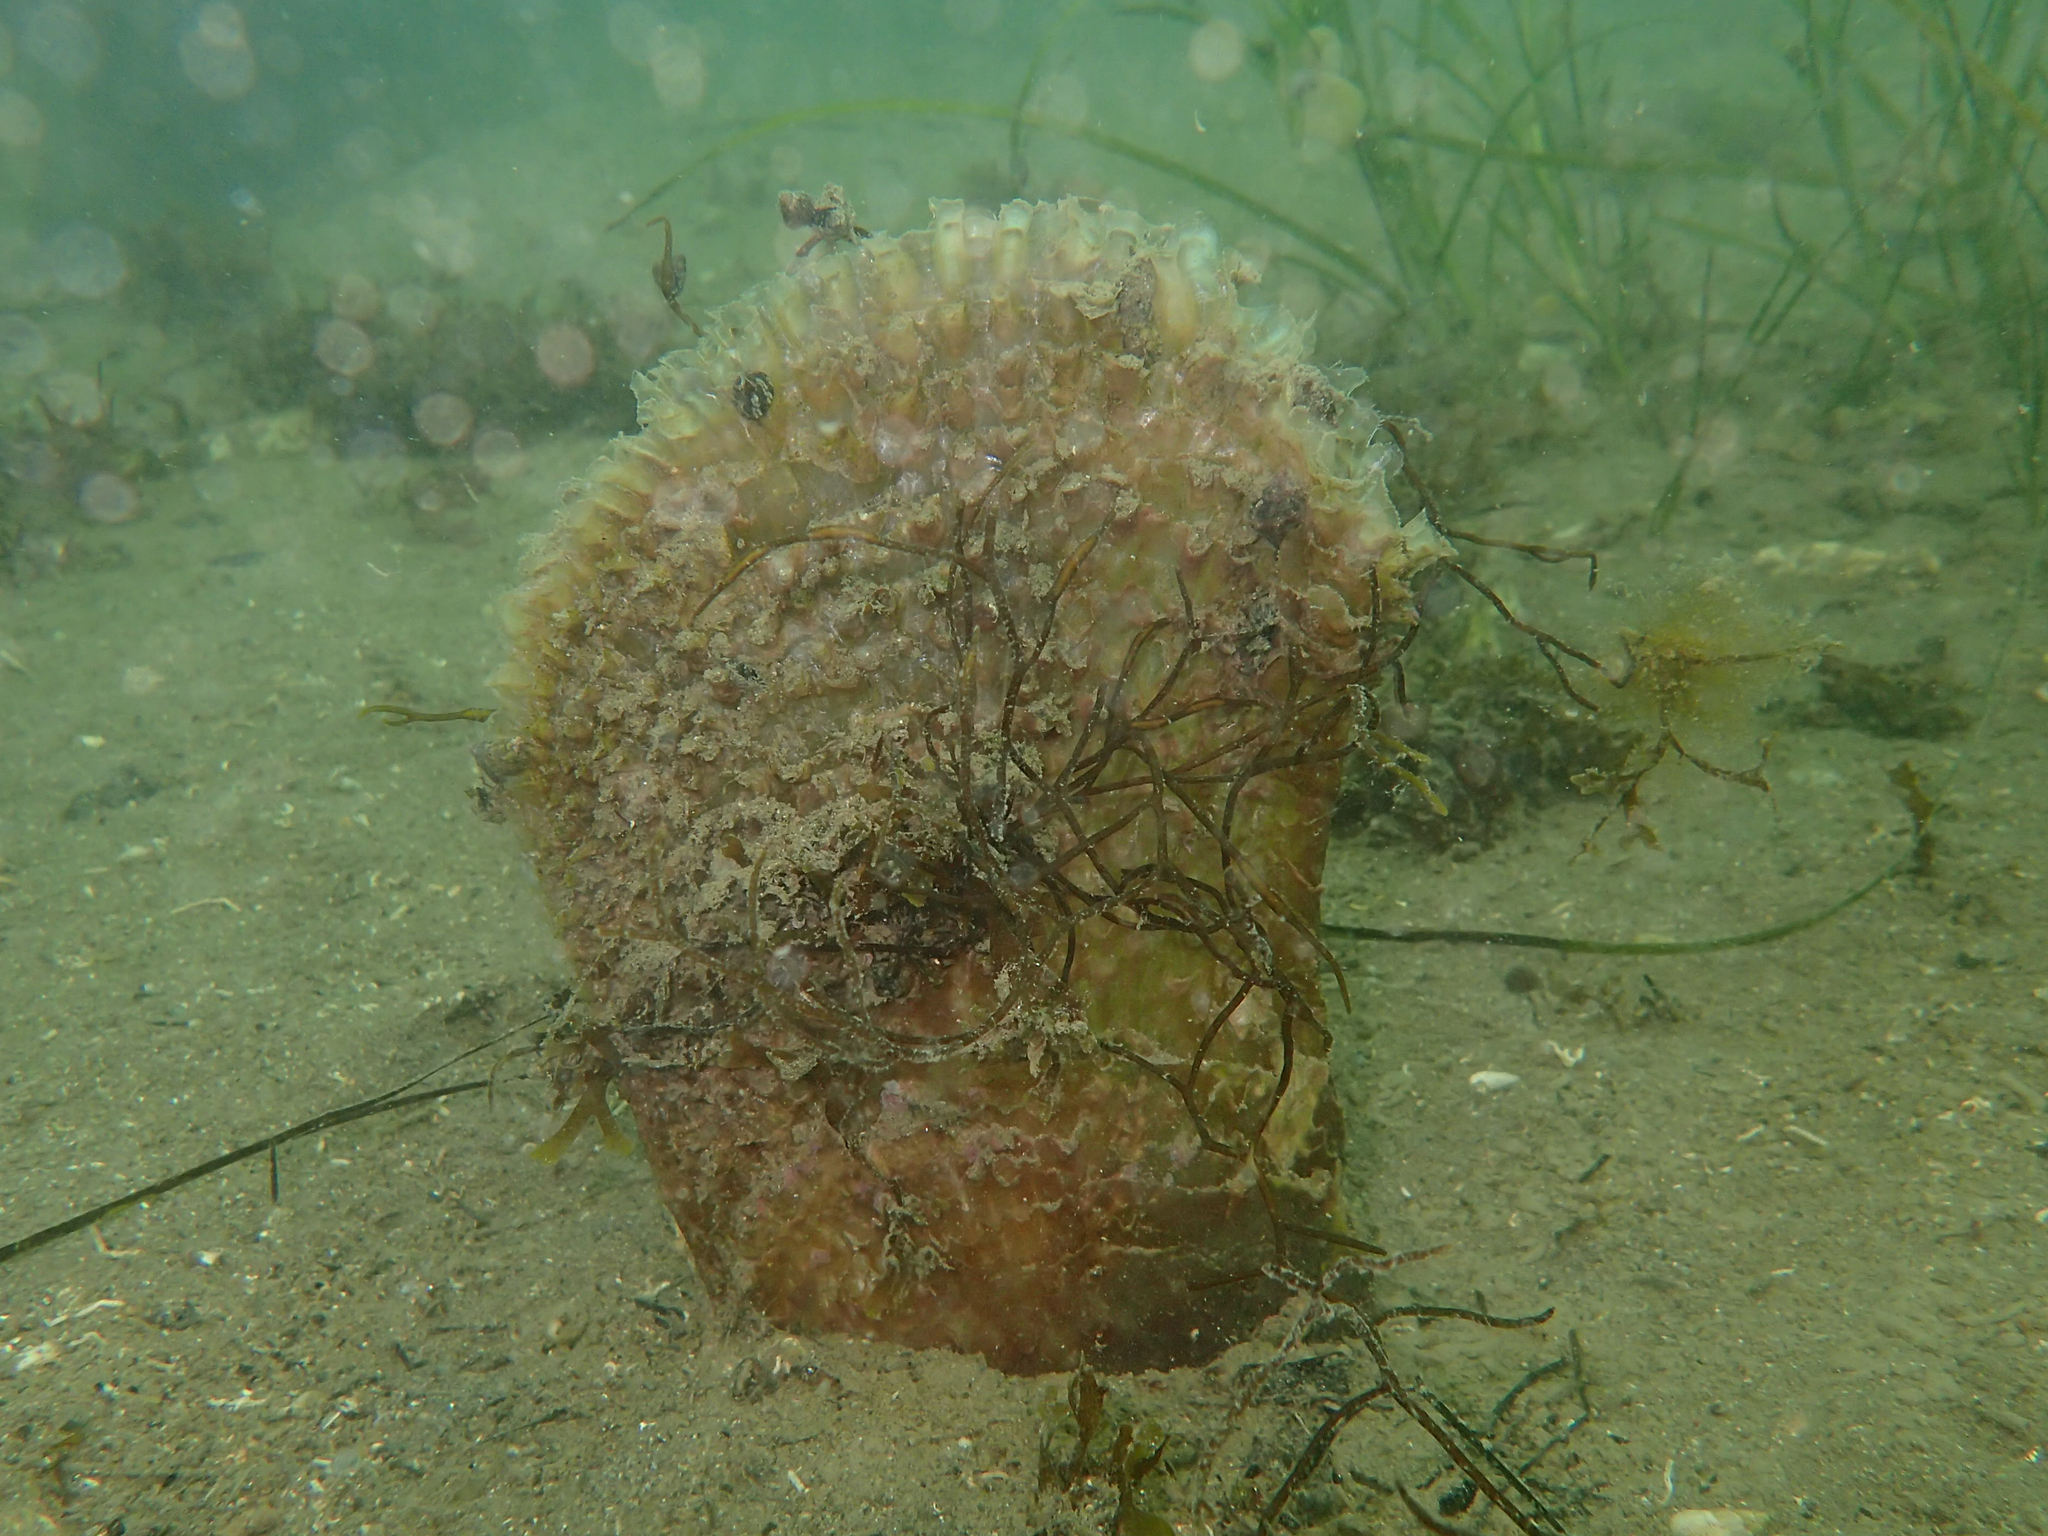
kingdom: Animalia
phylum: Mollusca
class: Bivalvia
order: Ostreida
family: Pinnidae
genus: Pinna
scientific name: Pinna nobilis
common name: Fan mussel
